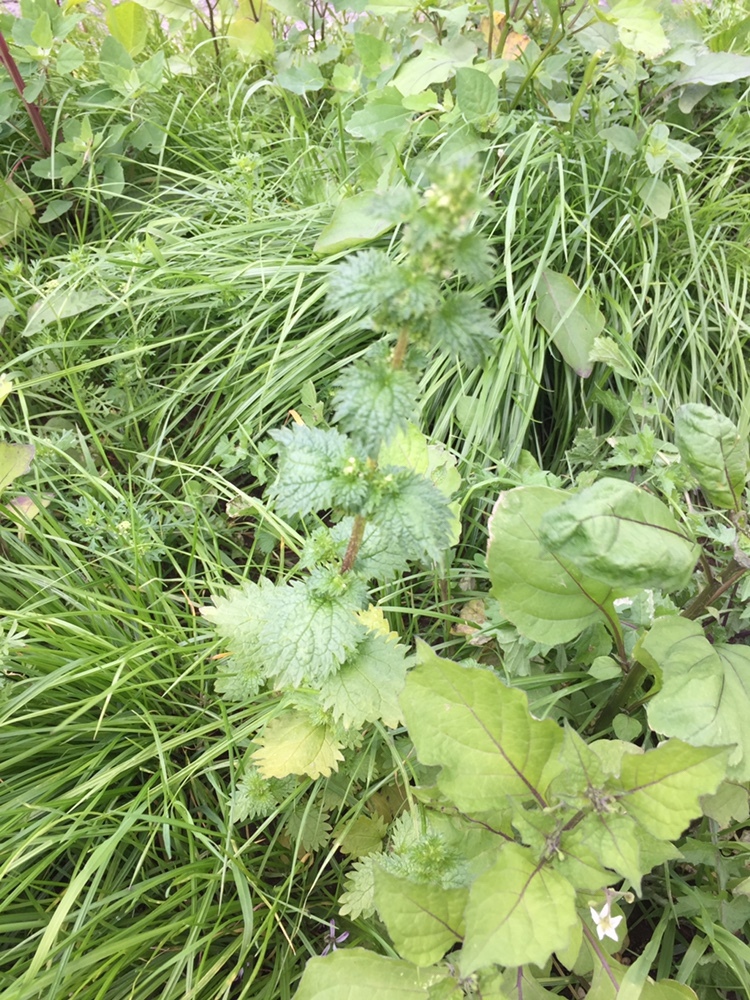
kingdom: Plantae
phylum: Tracheophyta
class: Magnoliopsida
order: Rosales
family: Urticaceae
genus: Urtica
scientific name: Urtica urens
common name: Dwarf nettle
